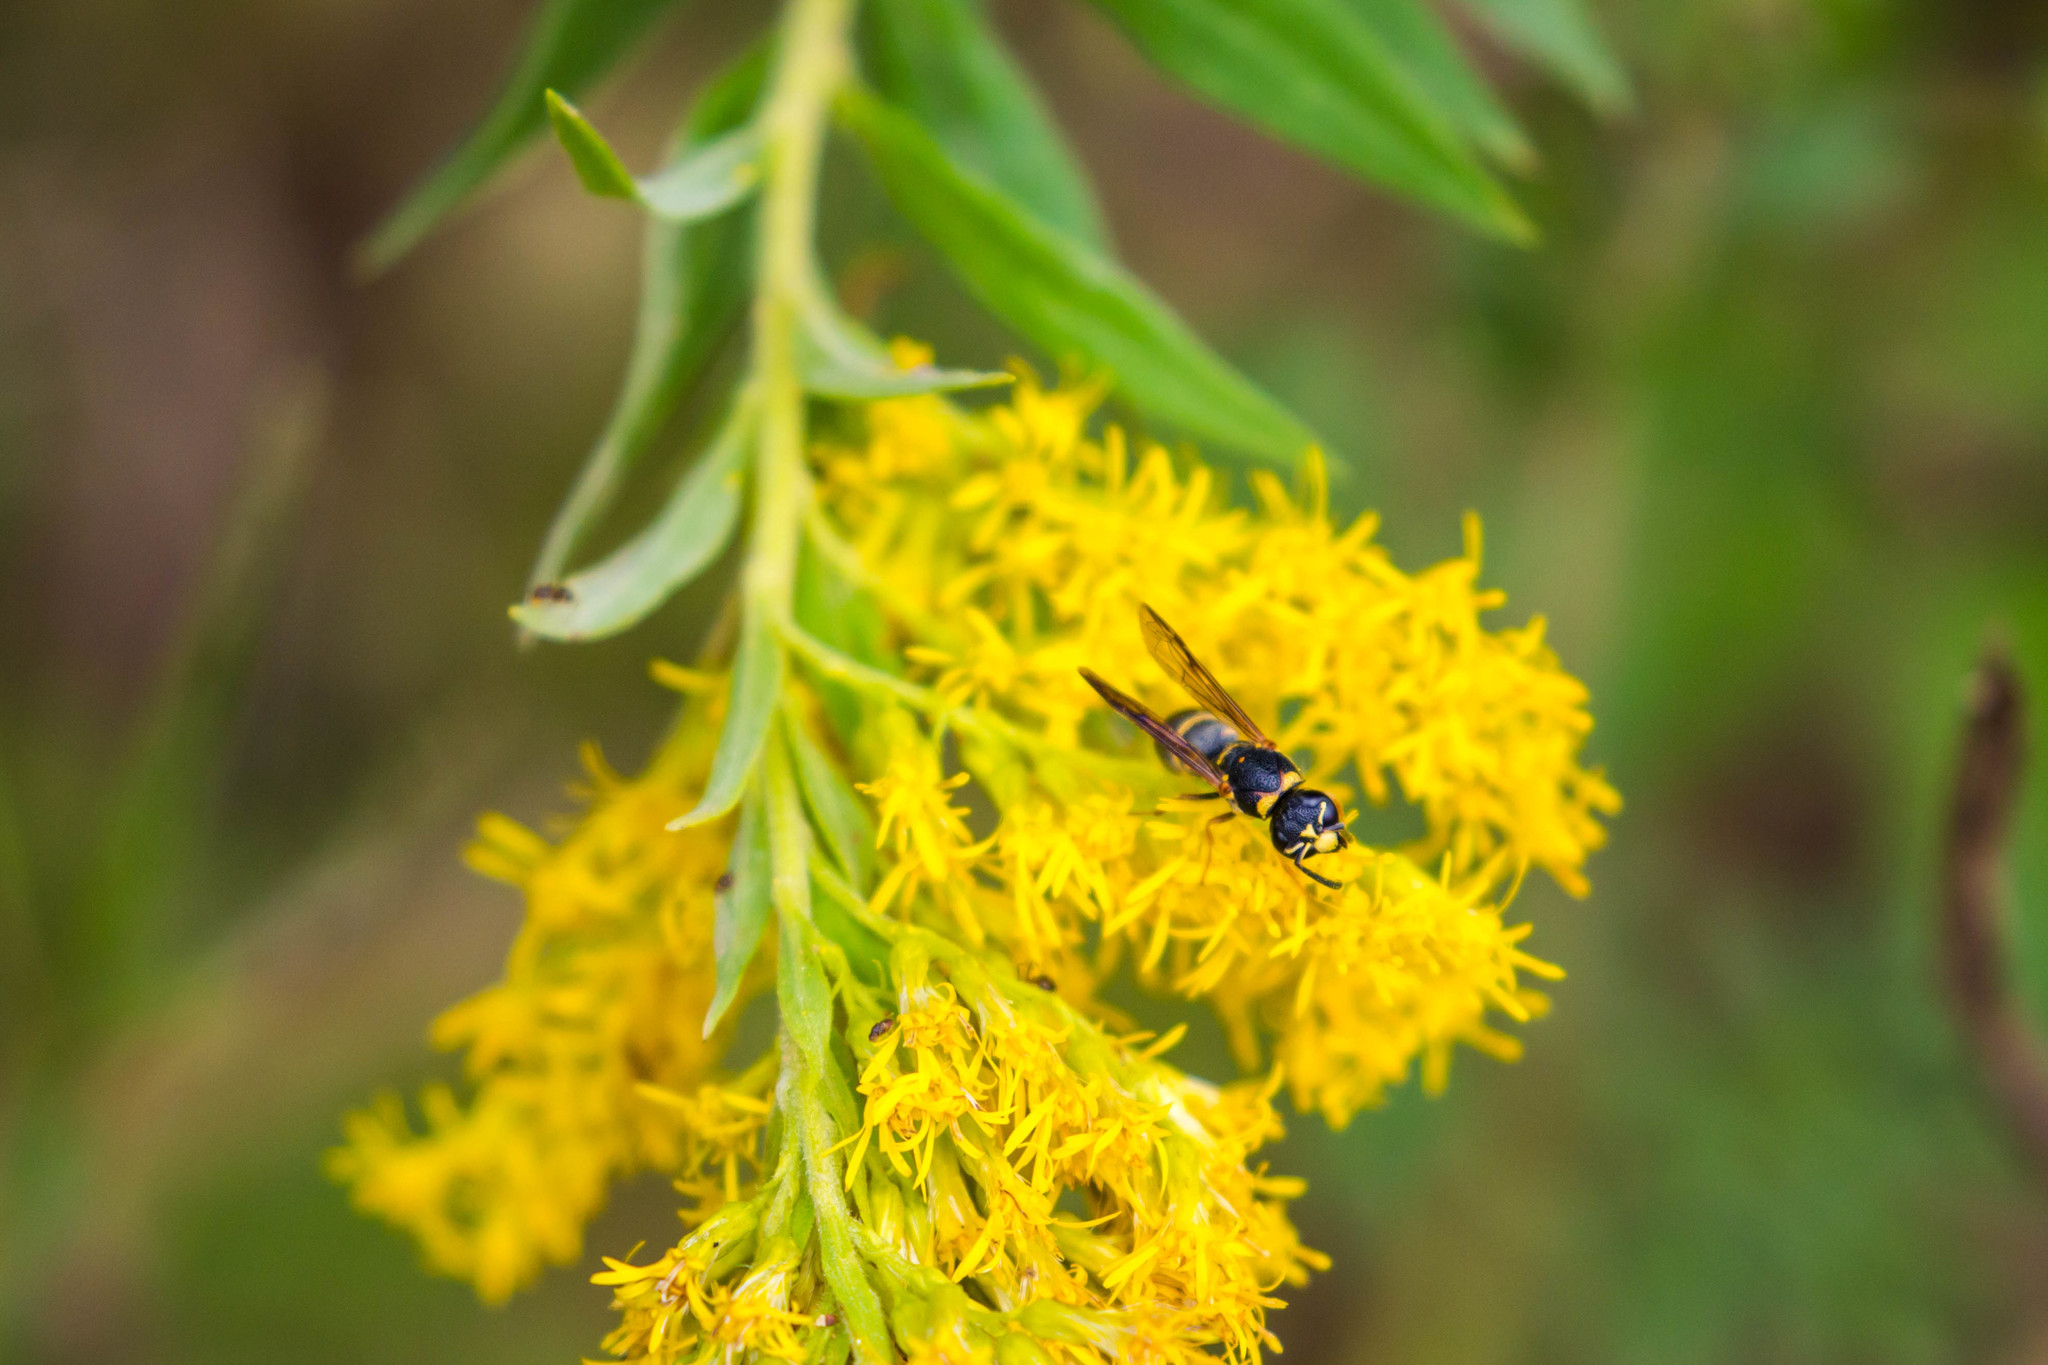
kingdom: Animalia
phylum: Arthropoda
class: Insecta
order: Hymenoptera
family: Eumenidae
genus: Parancistrocerus
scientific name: Parancistrocerus fulvipes
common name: Potter wasp
